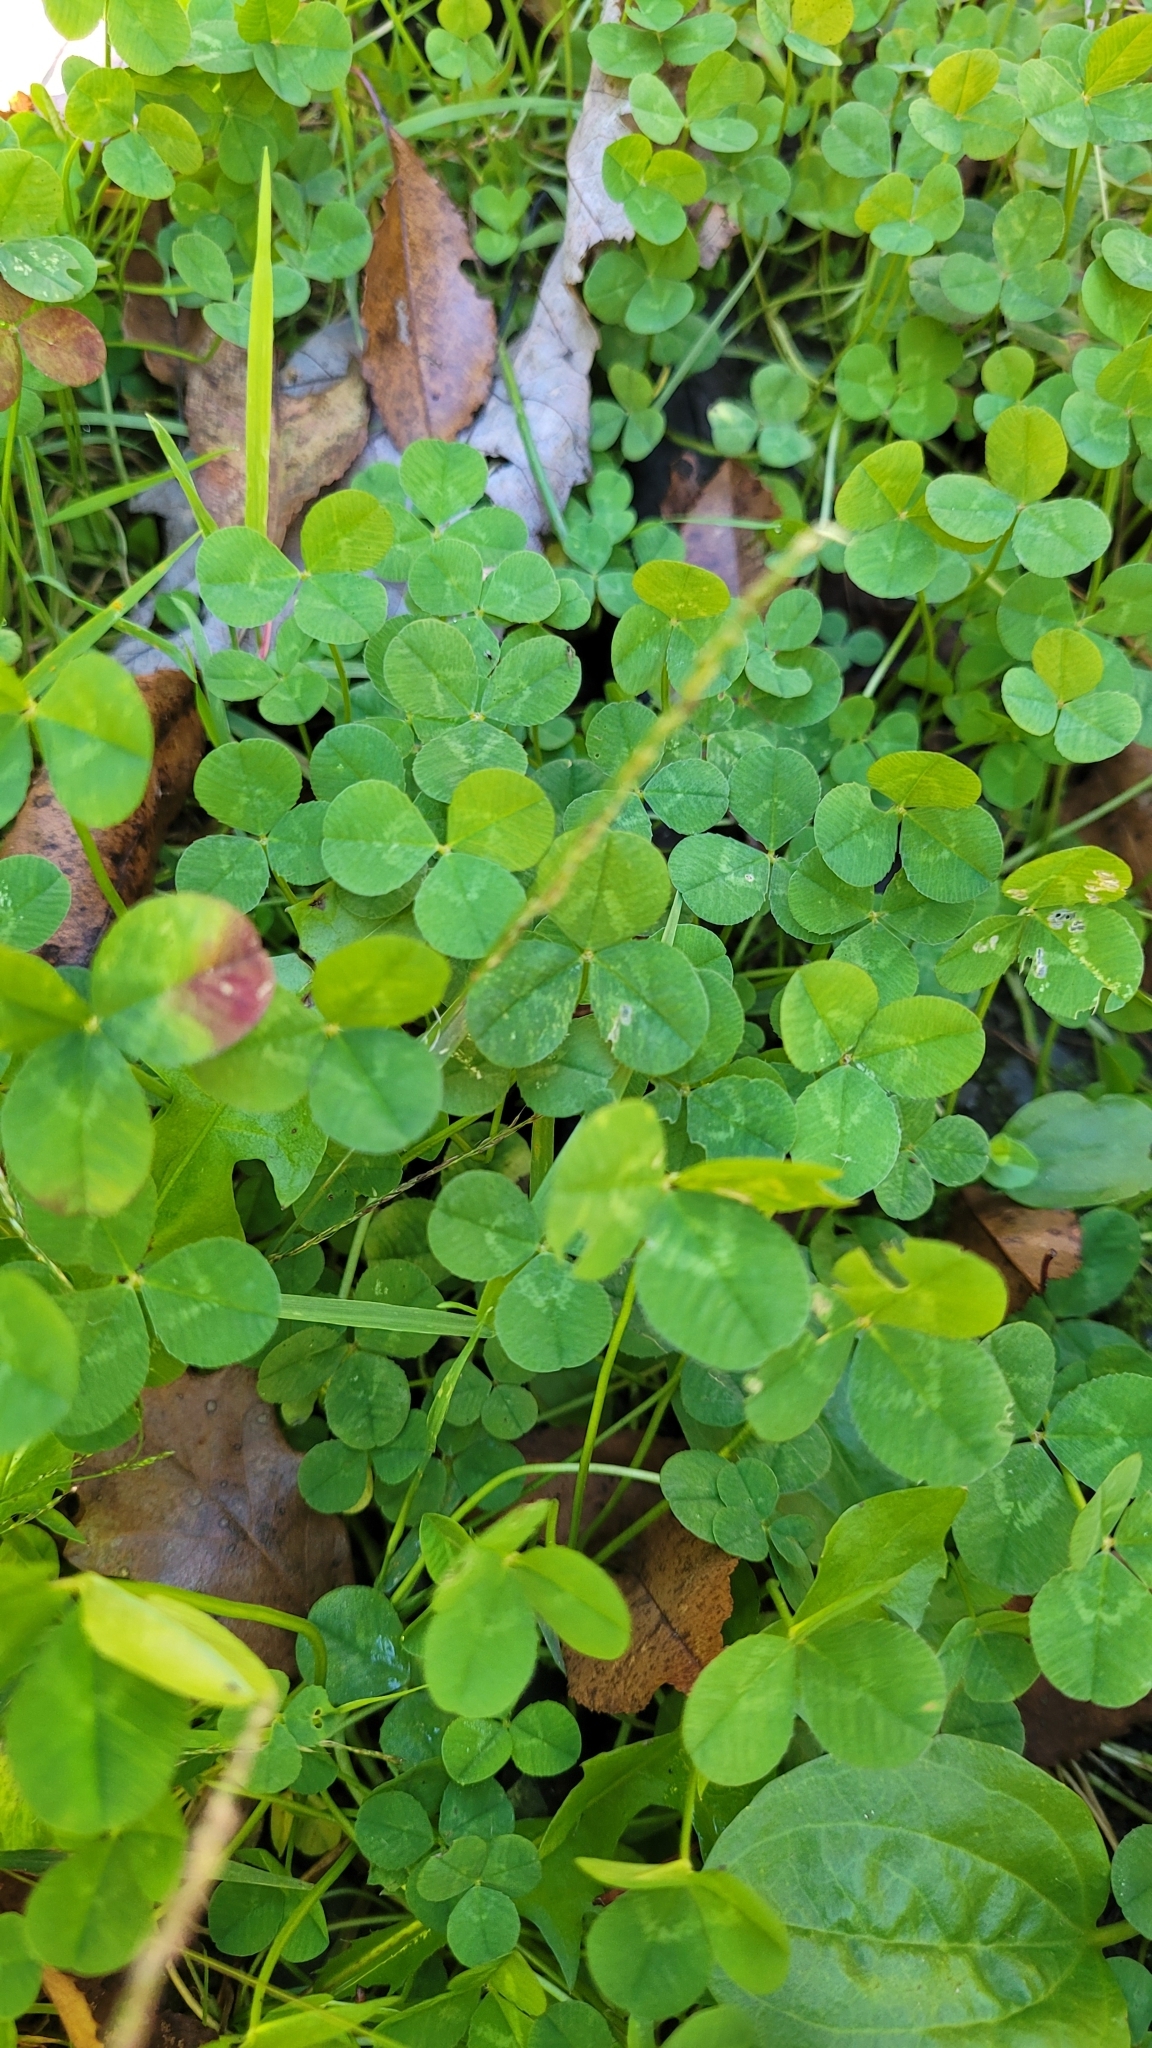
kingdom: Plantae
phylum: Tracheophyta
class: Magnoliopsida
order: Fabales
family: Fabaceae
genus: Trifolium
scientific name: Trifolium repens
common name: White clover
